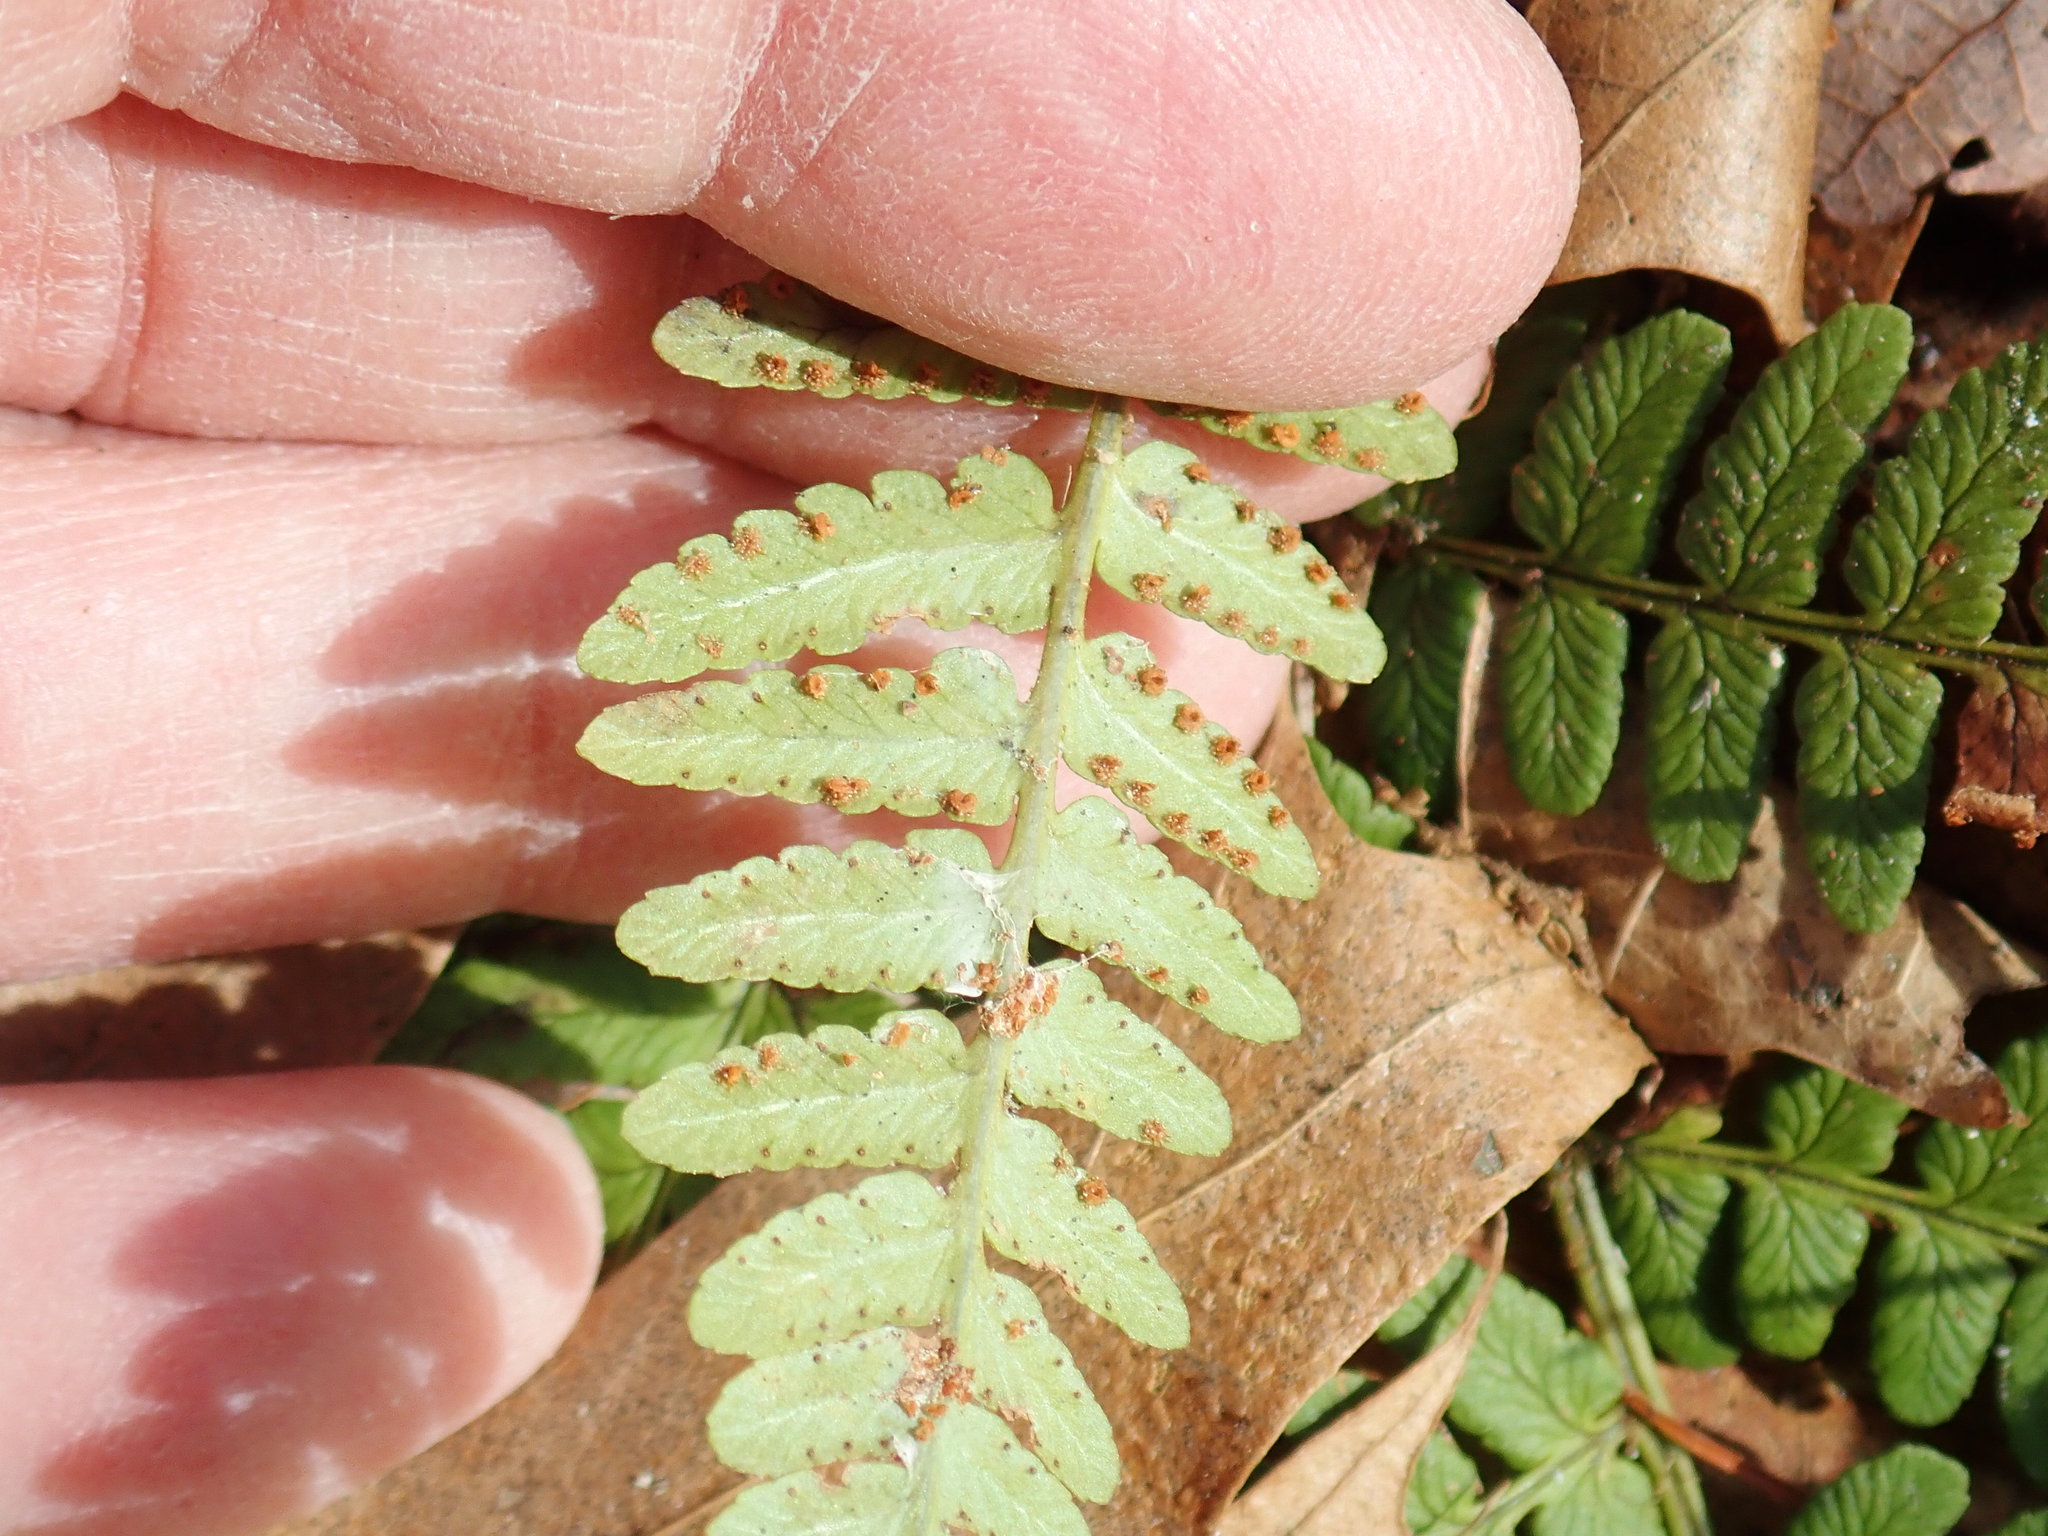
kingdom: Plantae
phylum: Tracheophyta
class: Polypodiopsida
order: Polypodiales
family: Dryopteridaceae
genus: Dryopteris
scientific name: Dryopteris marginalis
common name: Marginal wood fern
